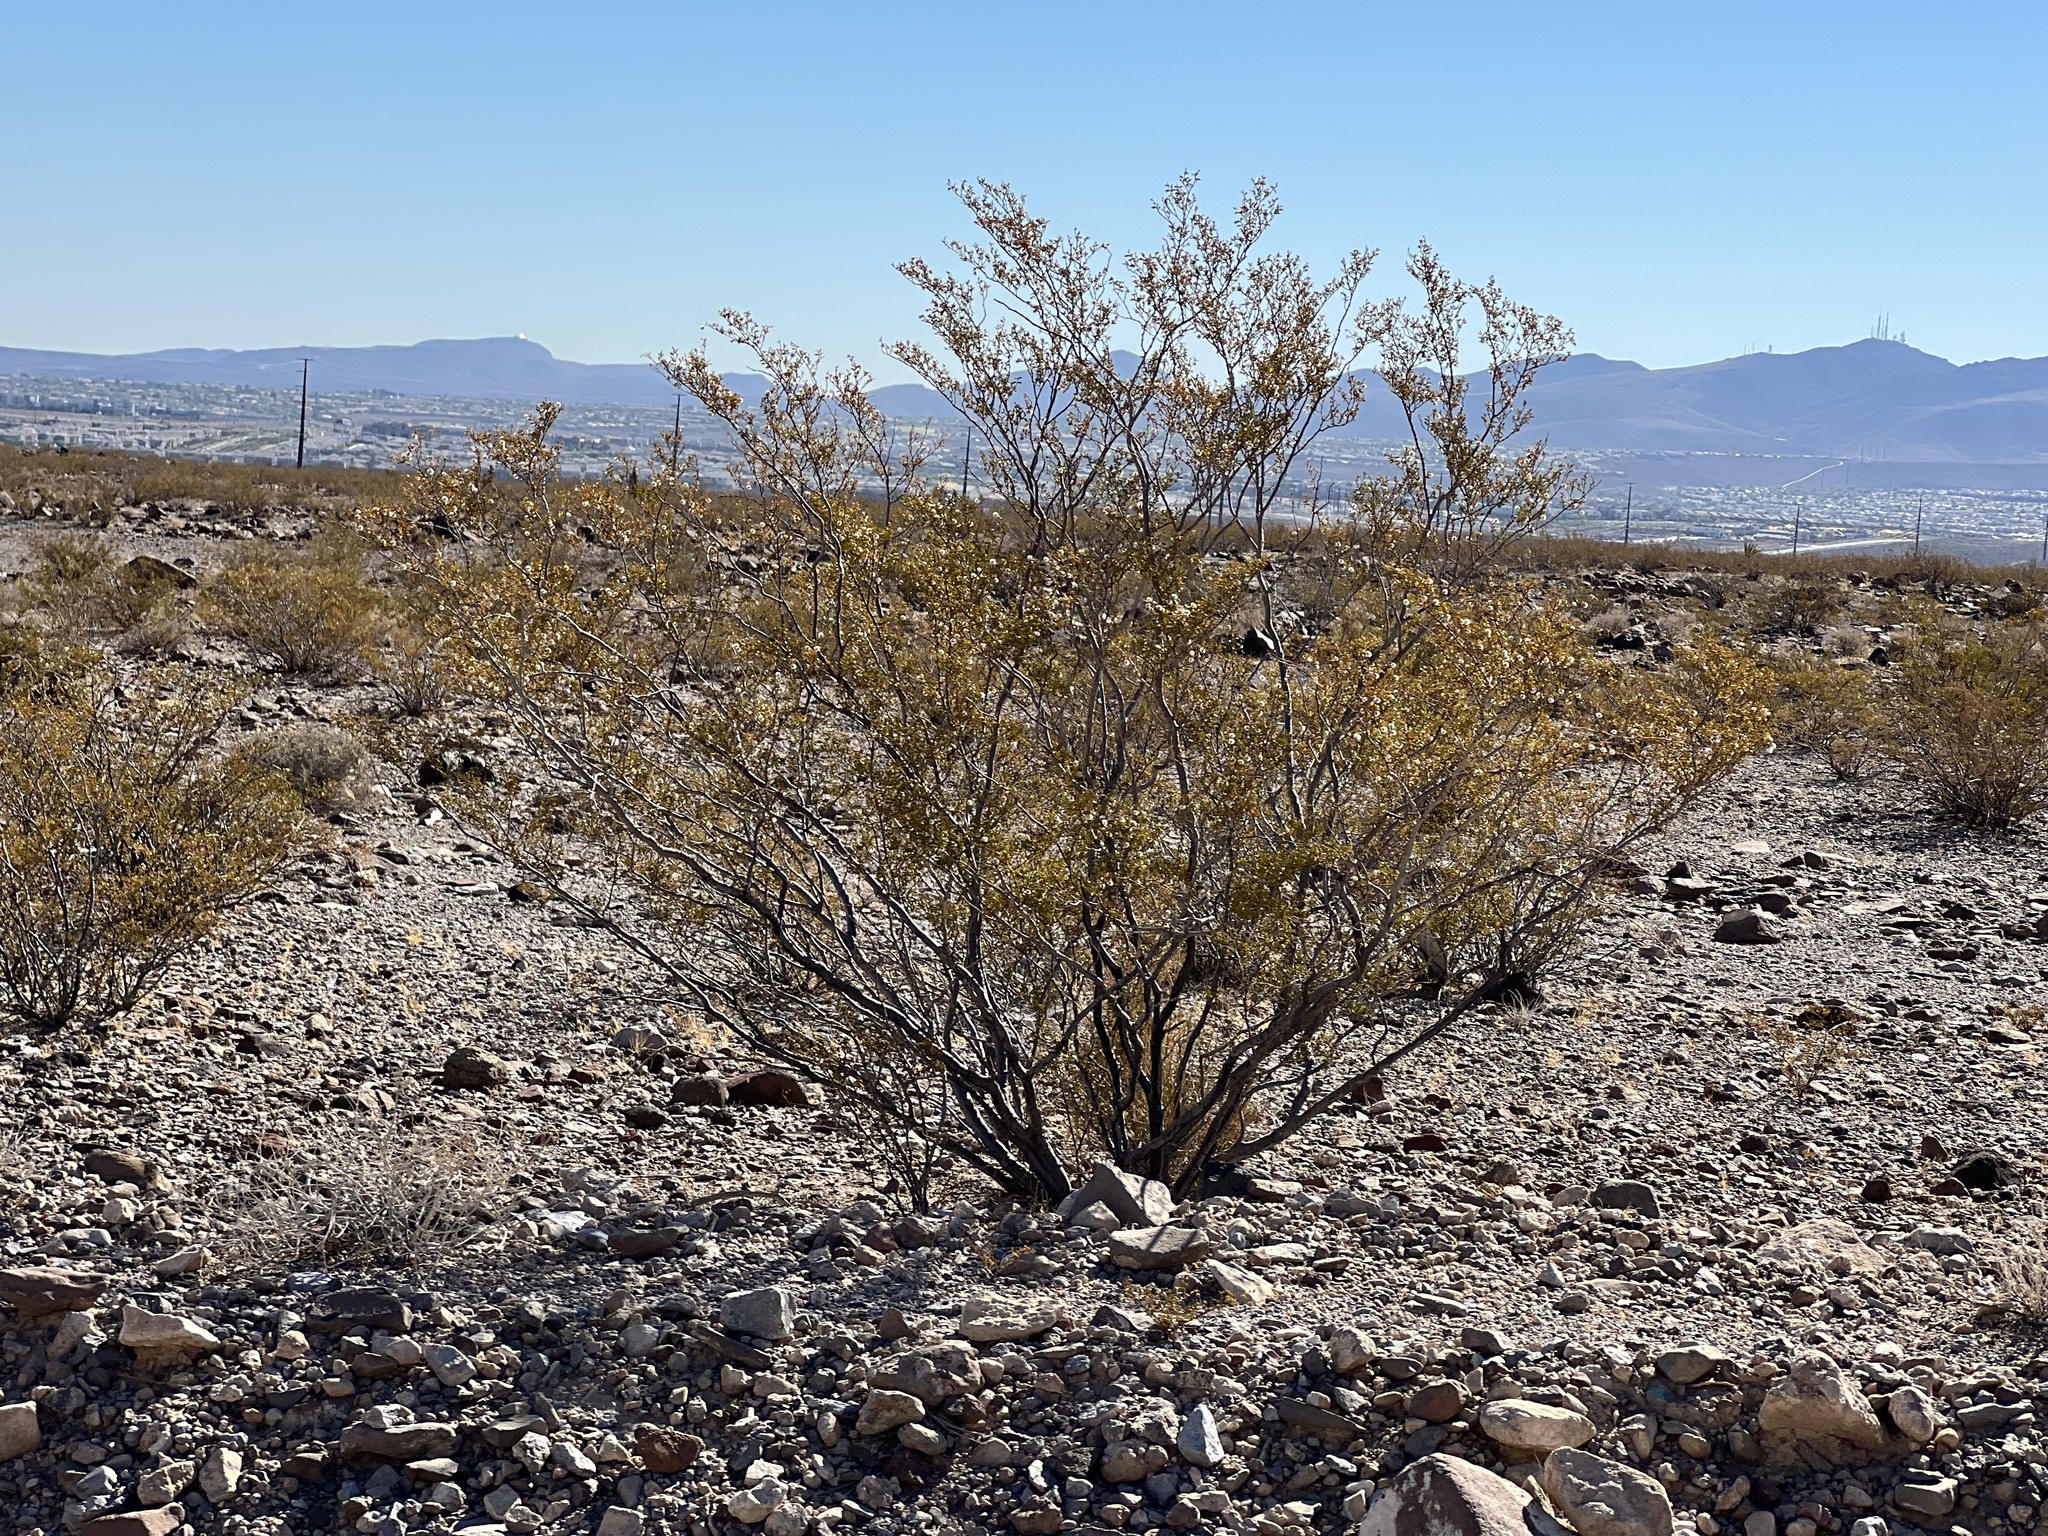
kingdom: Plantae
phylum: Tracheophyta
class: Magnoliopsida
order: Zygophyllales
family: Zygophyllaceae
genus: Larrea
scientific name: Larrea tridentata
